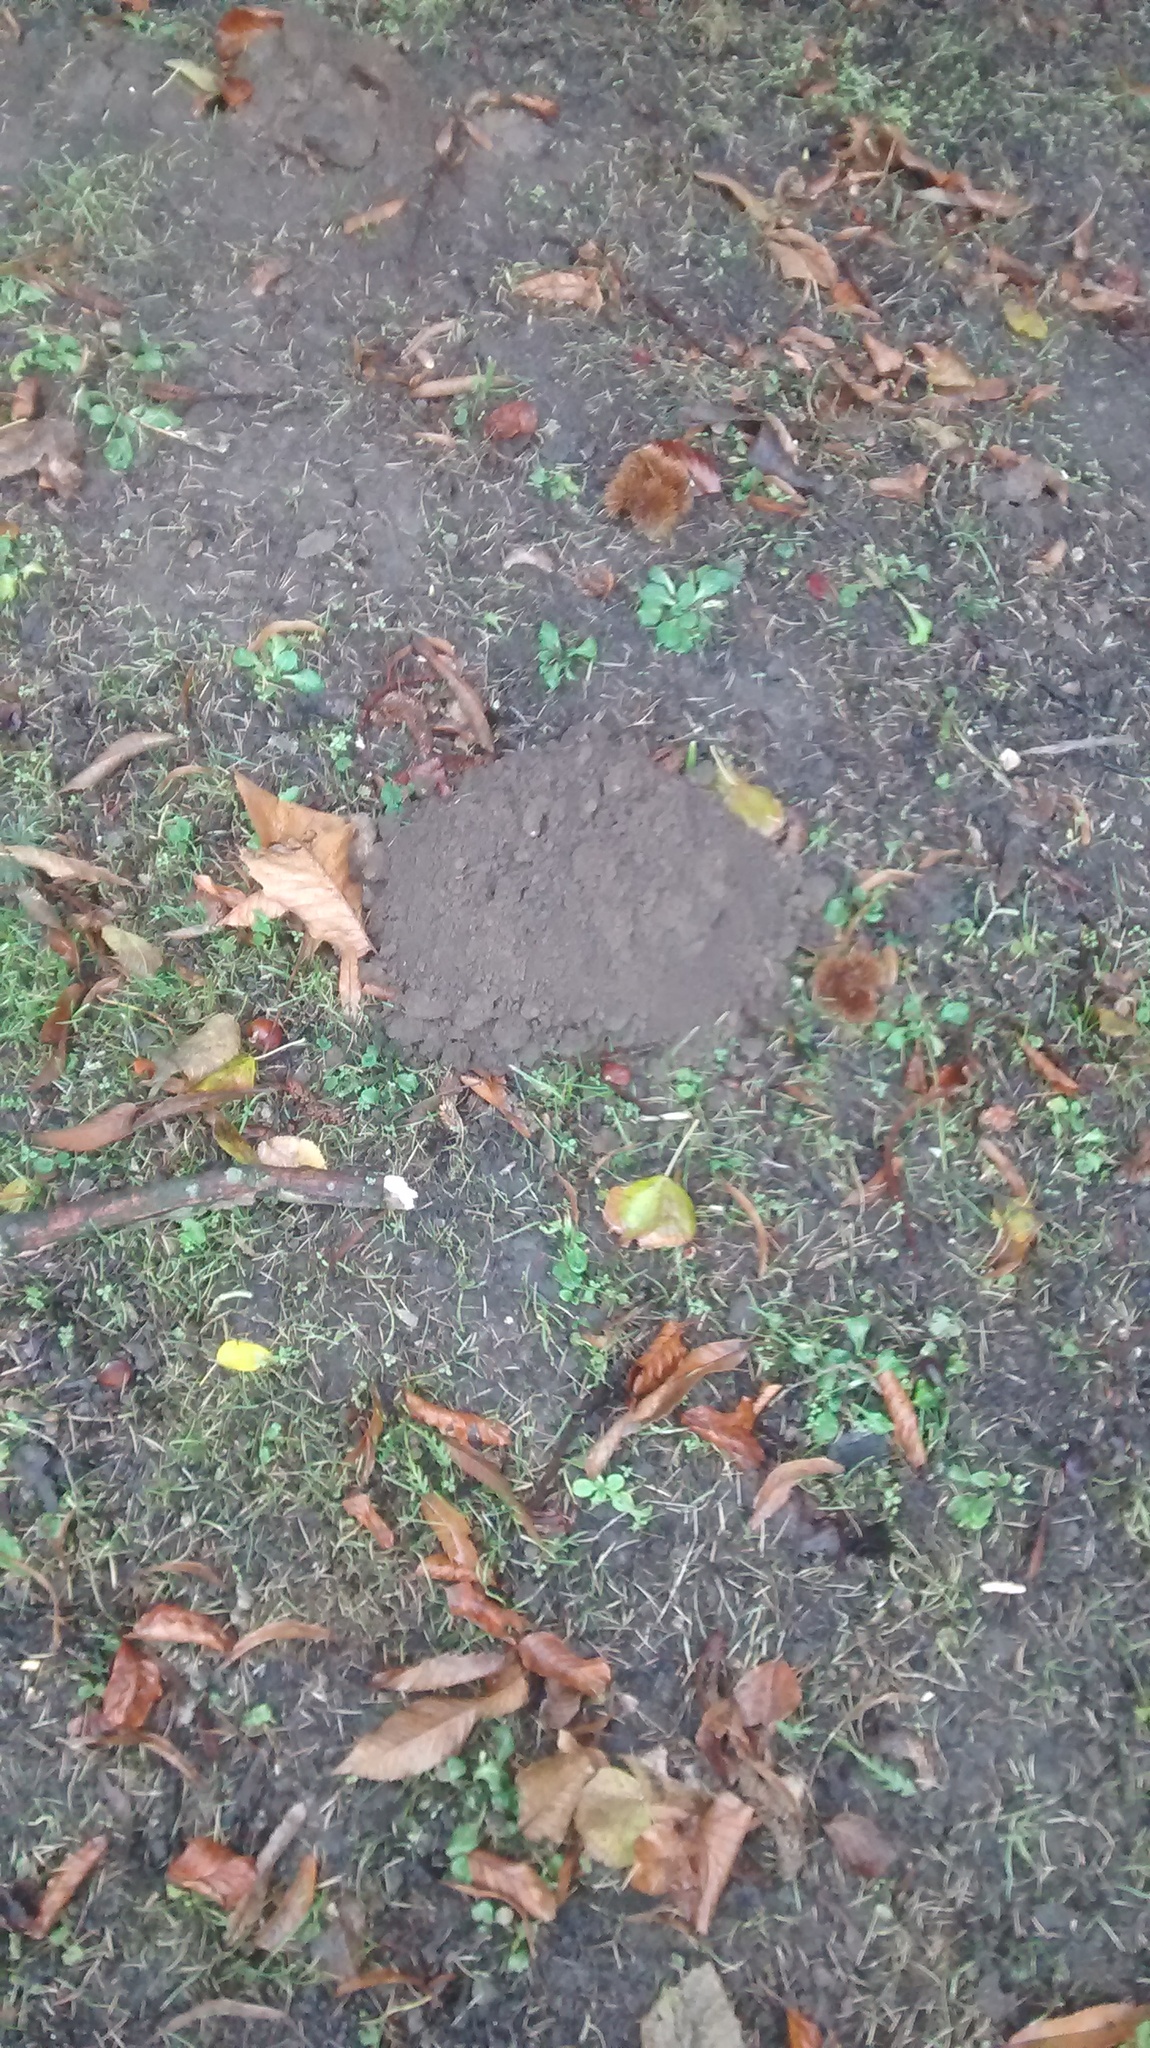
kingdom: Animalia
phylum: Chordata
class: Mammalia
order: Soricomorpha
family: Talpidae
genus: Talpa
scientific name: Talpa europaea
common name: European mole
